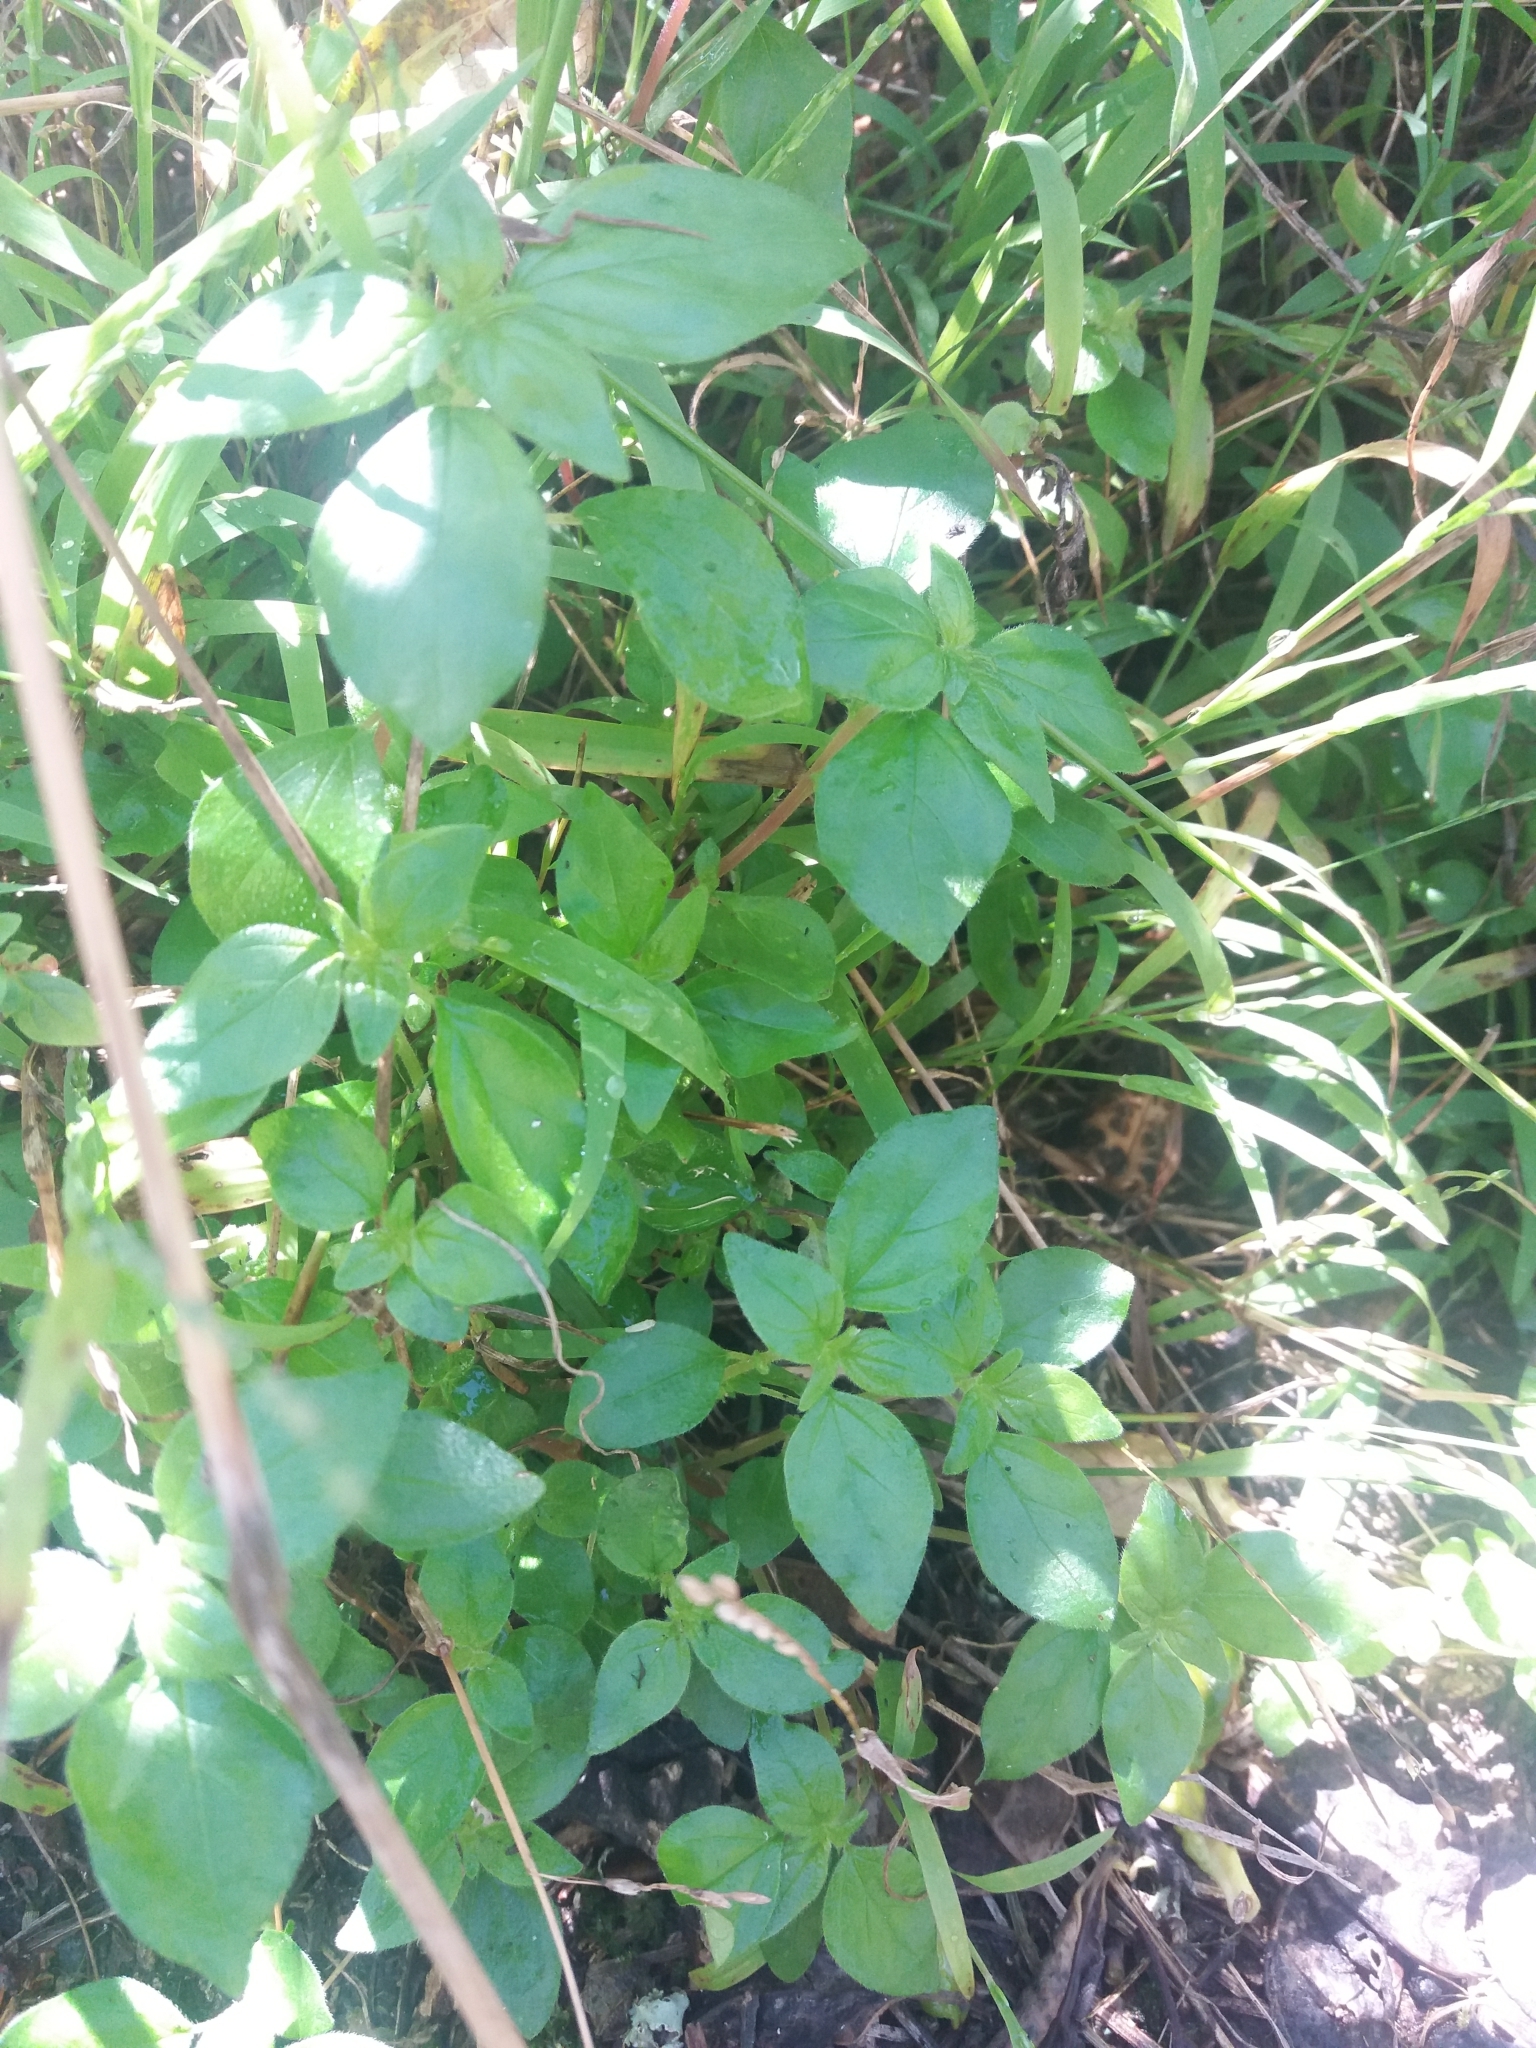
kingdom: Plantae
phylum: Tracheophyta
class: Magnoliopsida
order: Rosales
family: Urticaceae
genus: Parietaria
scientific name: Parietaria judaica
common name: Pellitory-of-the-wall
